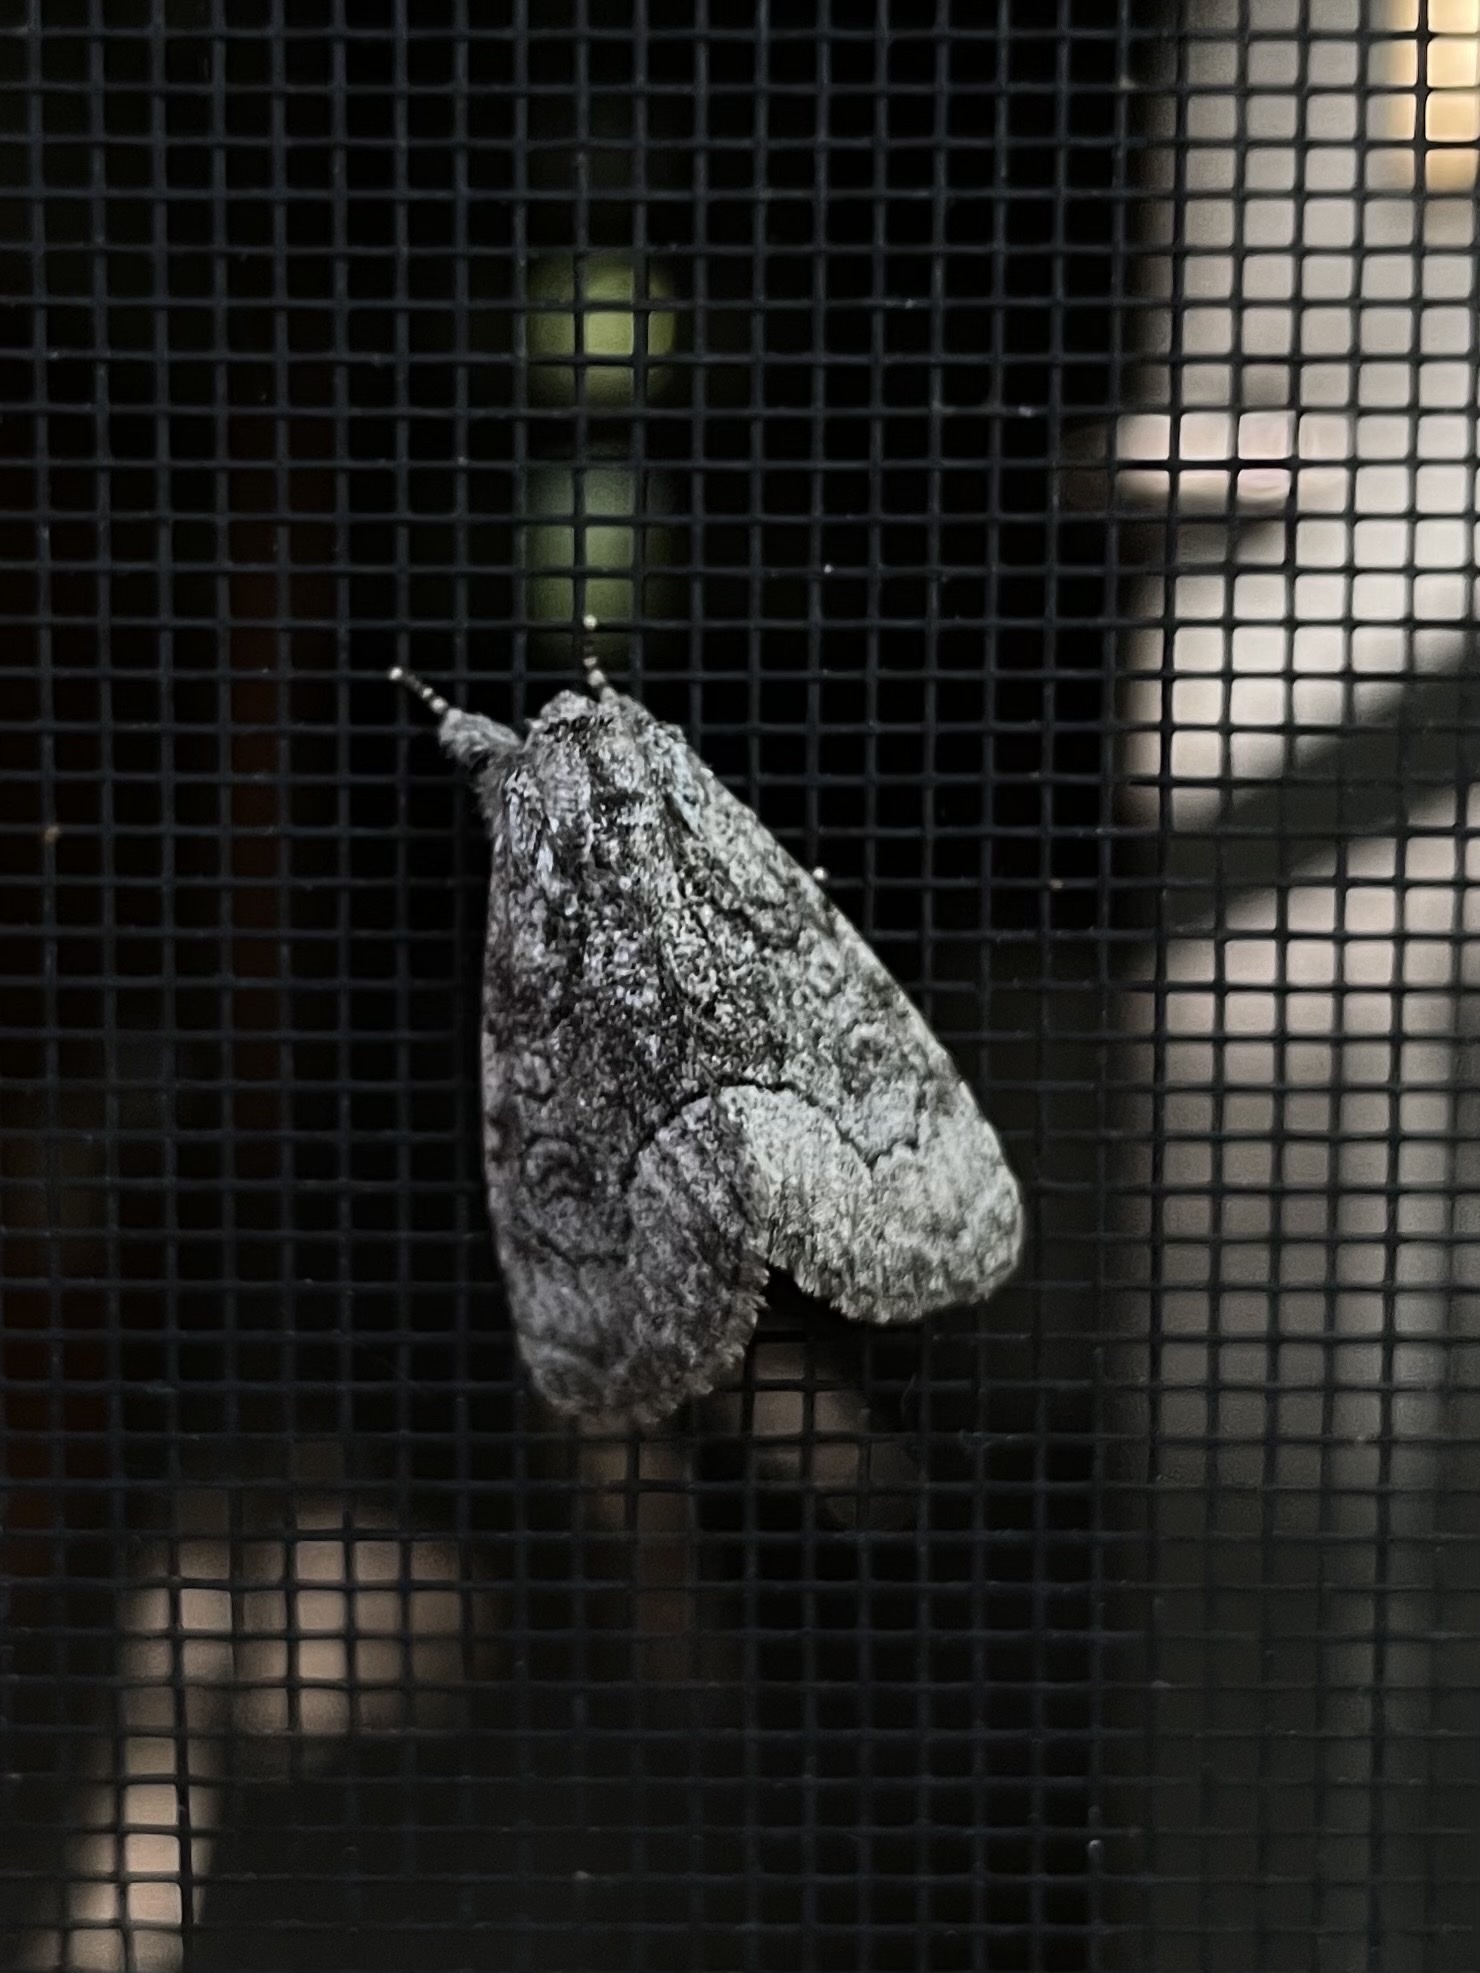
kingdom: Animalia
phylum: Arthropoda
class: Insecta
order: Lepidoptera
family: Noctuidae
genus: Raphia
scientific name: Raphia frater
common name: Brother
